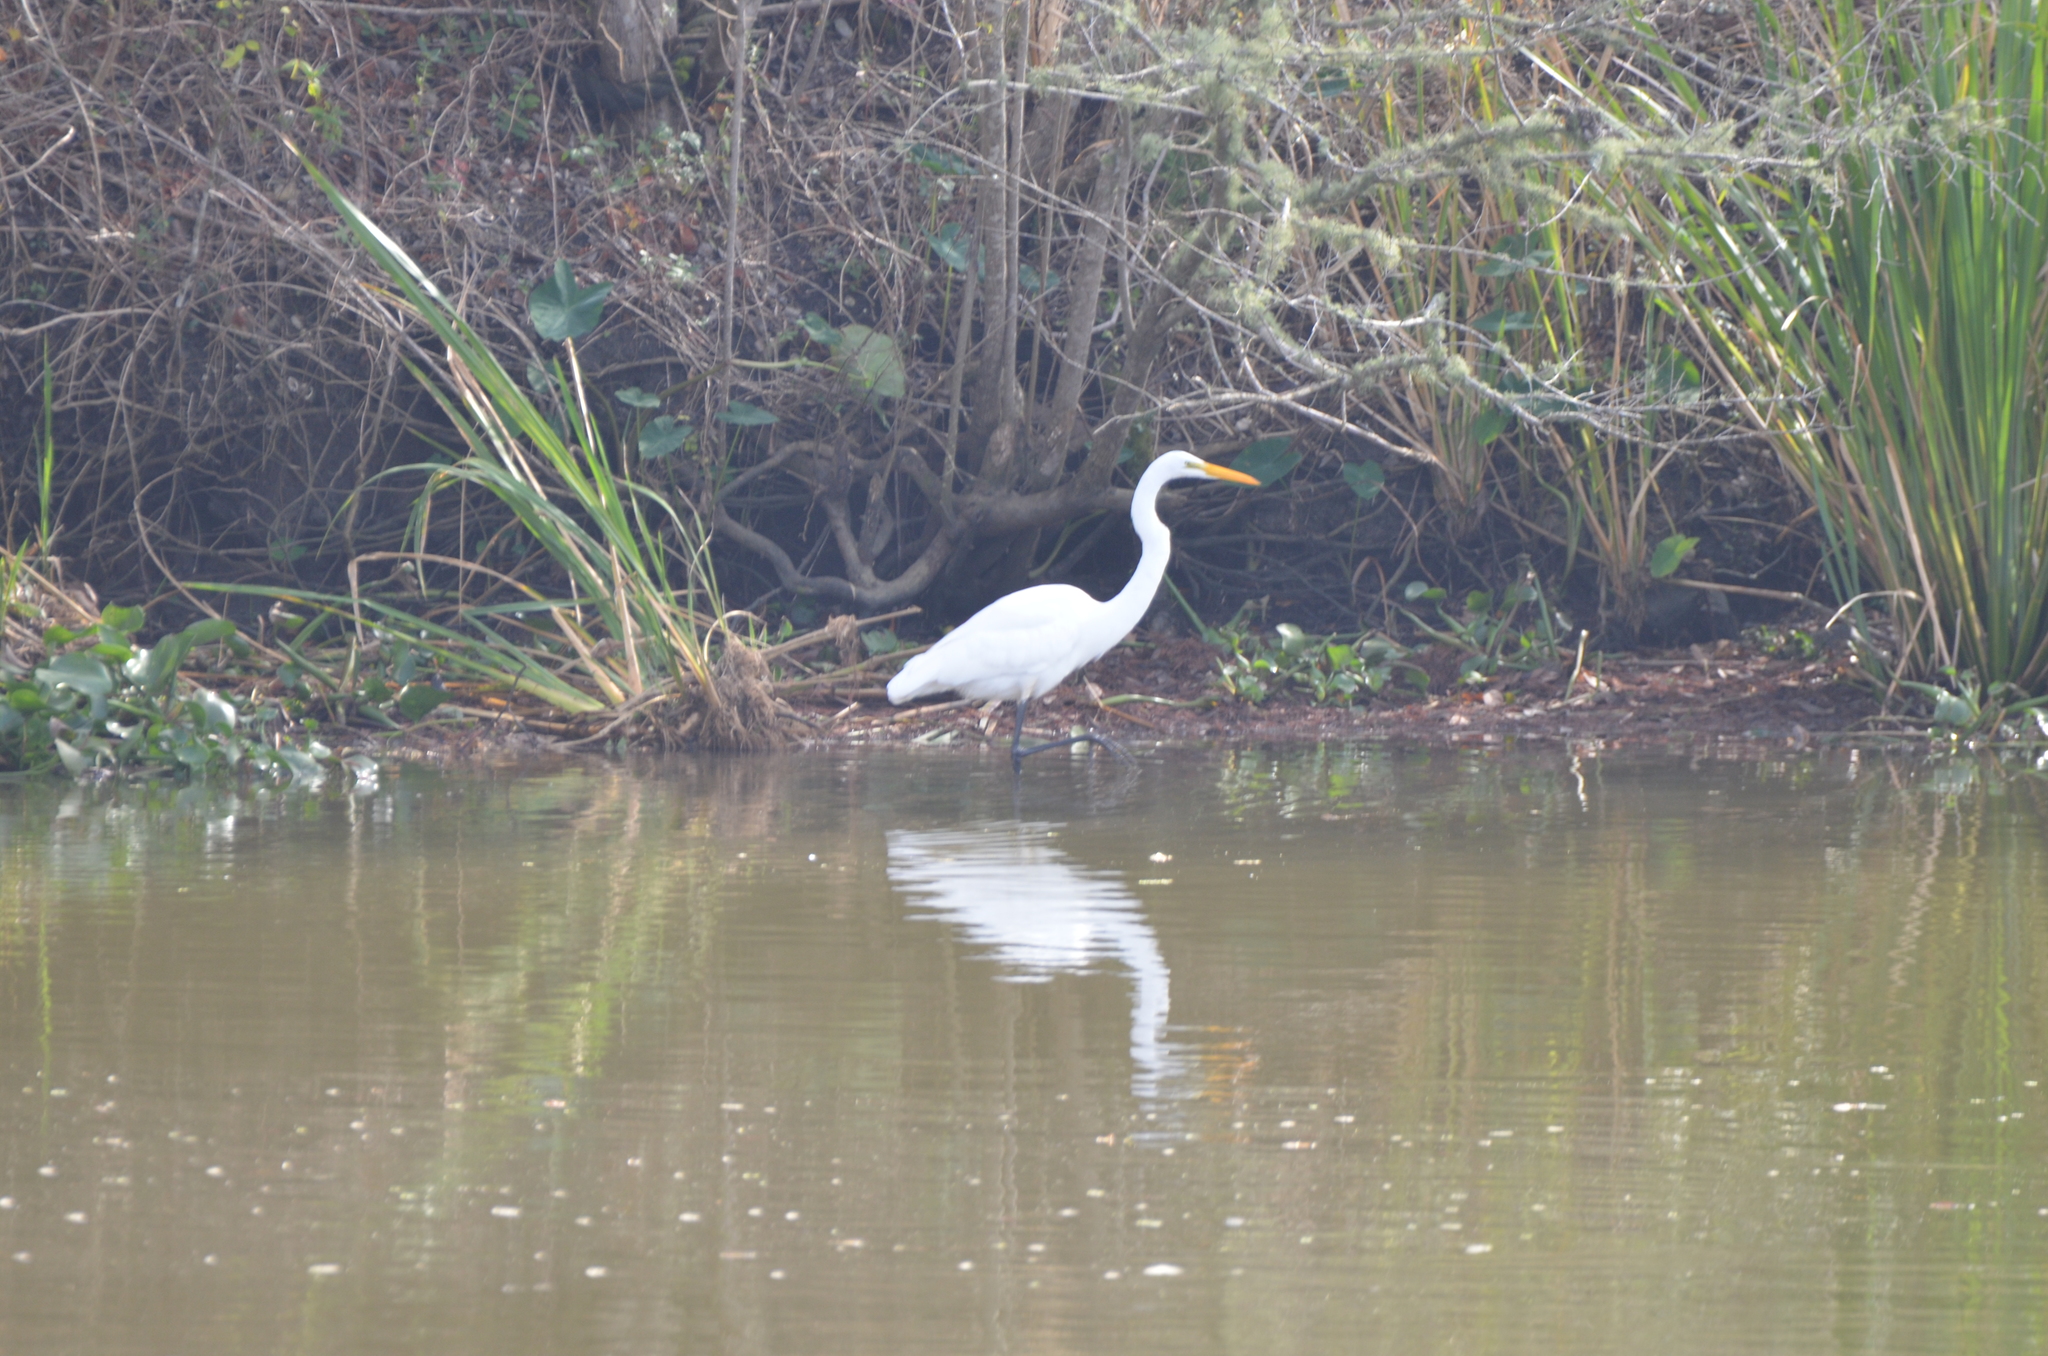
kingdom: Animalia
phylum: Chordata
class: Aves
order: Pelecaniformes
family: Ardeidae
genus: Ardea
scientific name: Ardea alba
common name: Great egret
